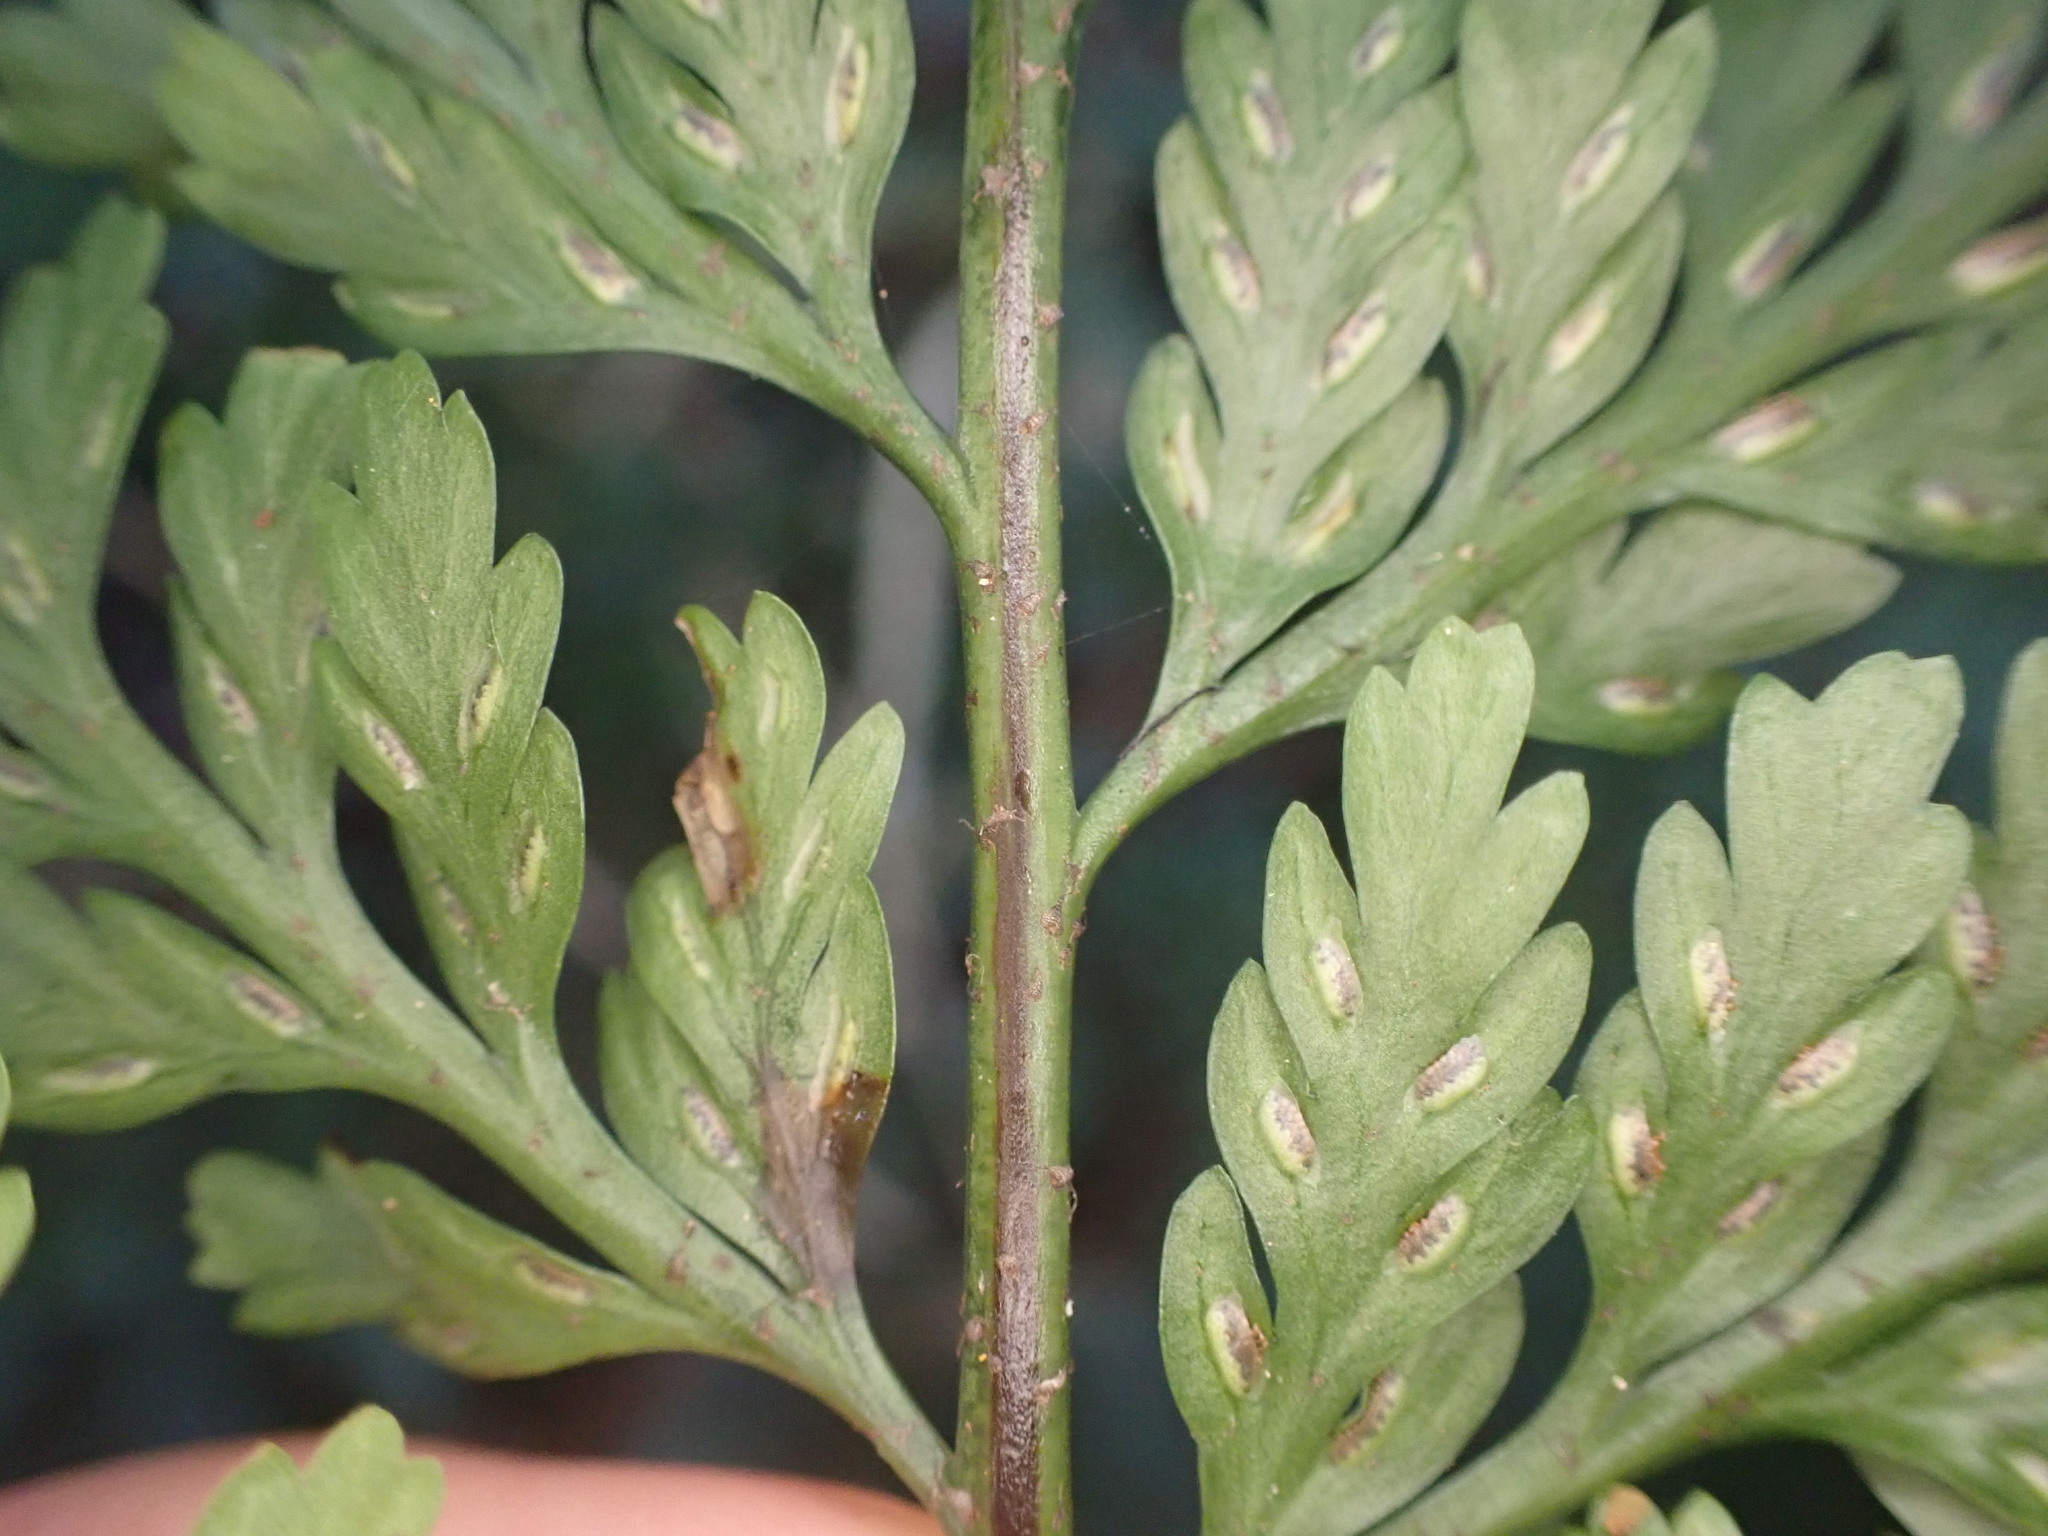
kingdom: Plantae
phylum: Tracheophyta
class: Polypodiopsida
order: Polypodiales
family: Aspleniaceae
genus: Asplenium
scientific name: Asplenium
